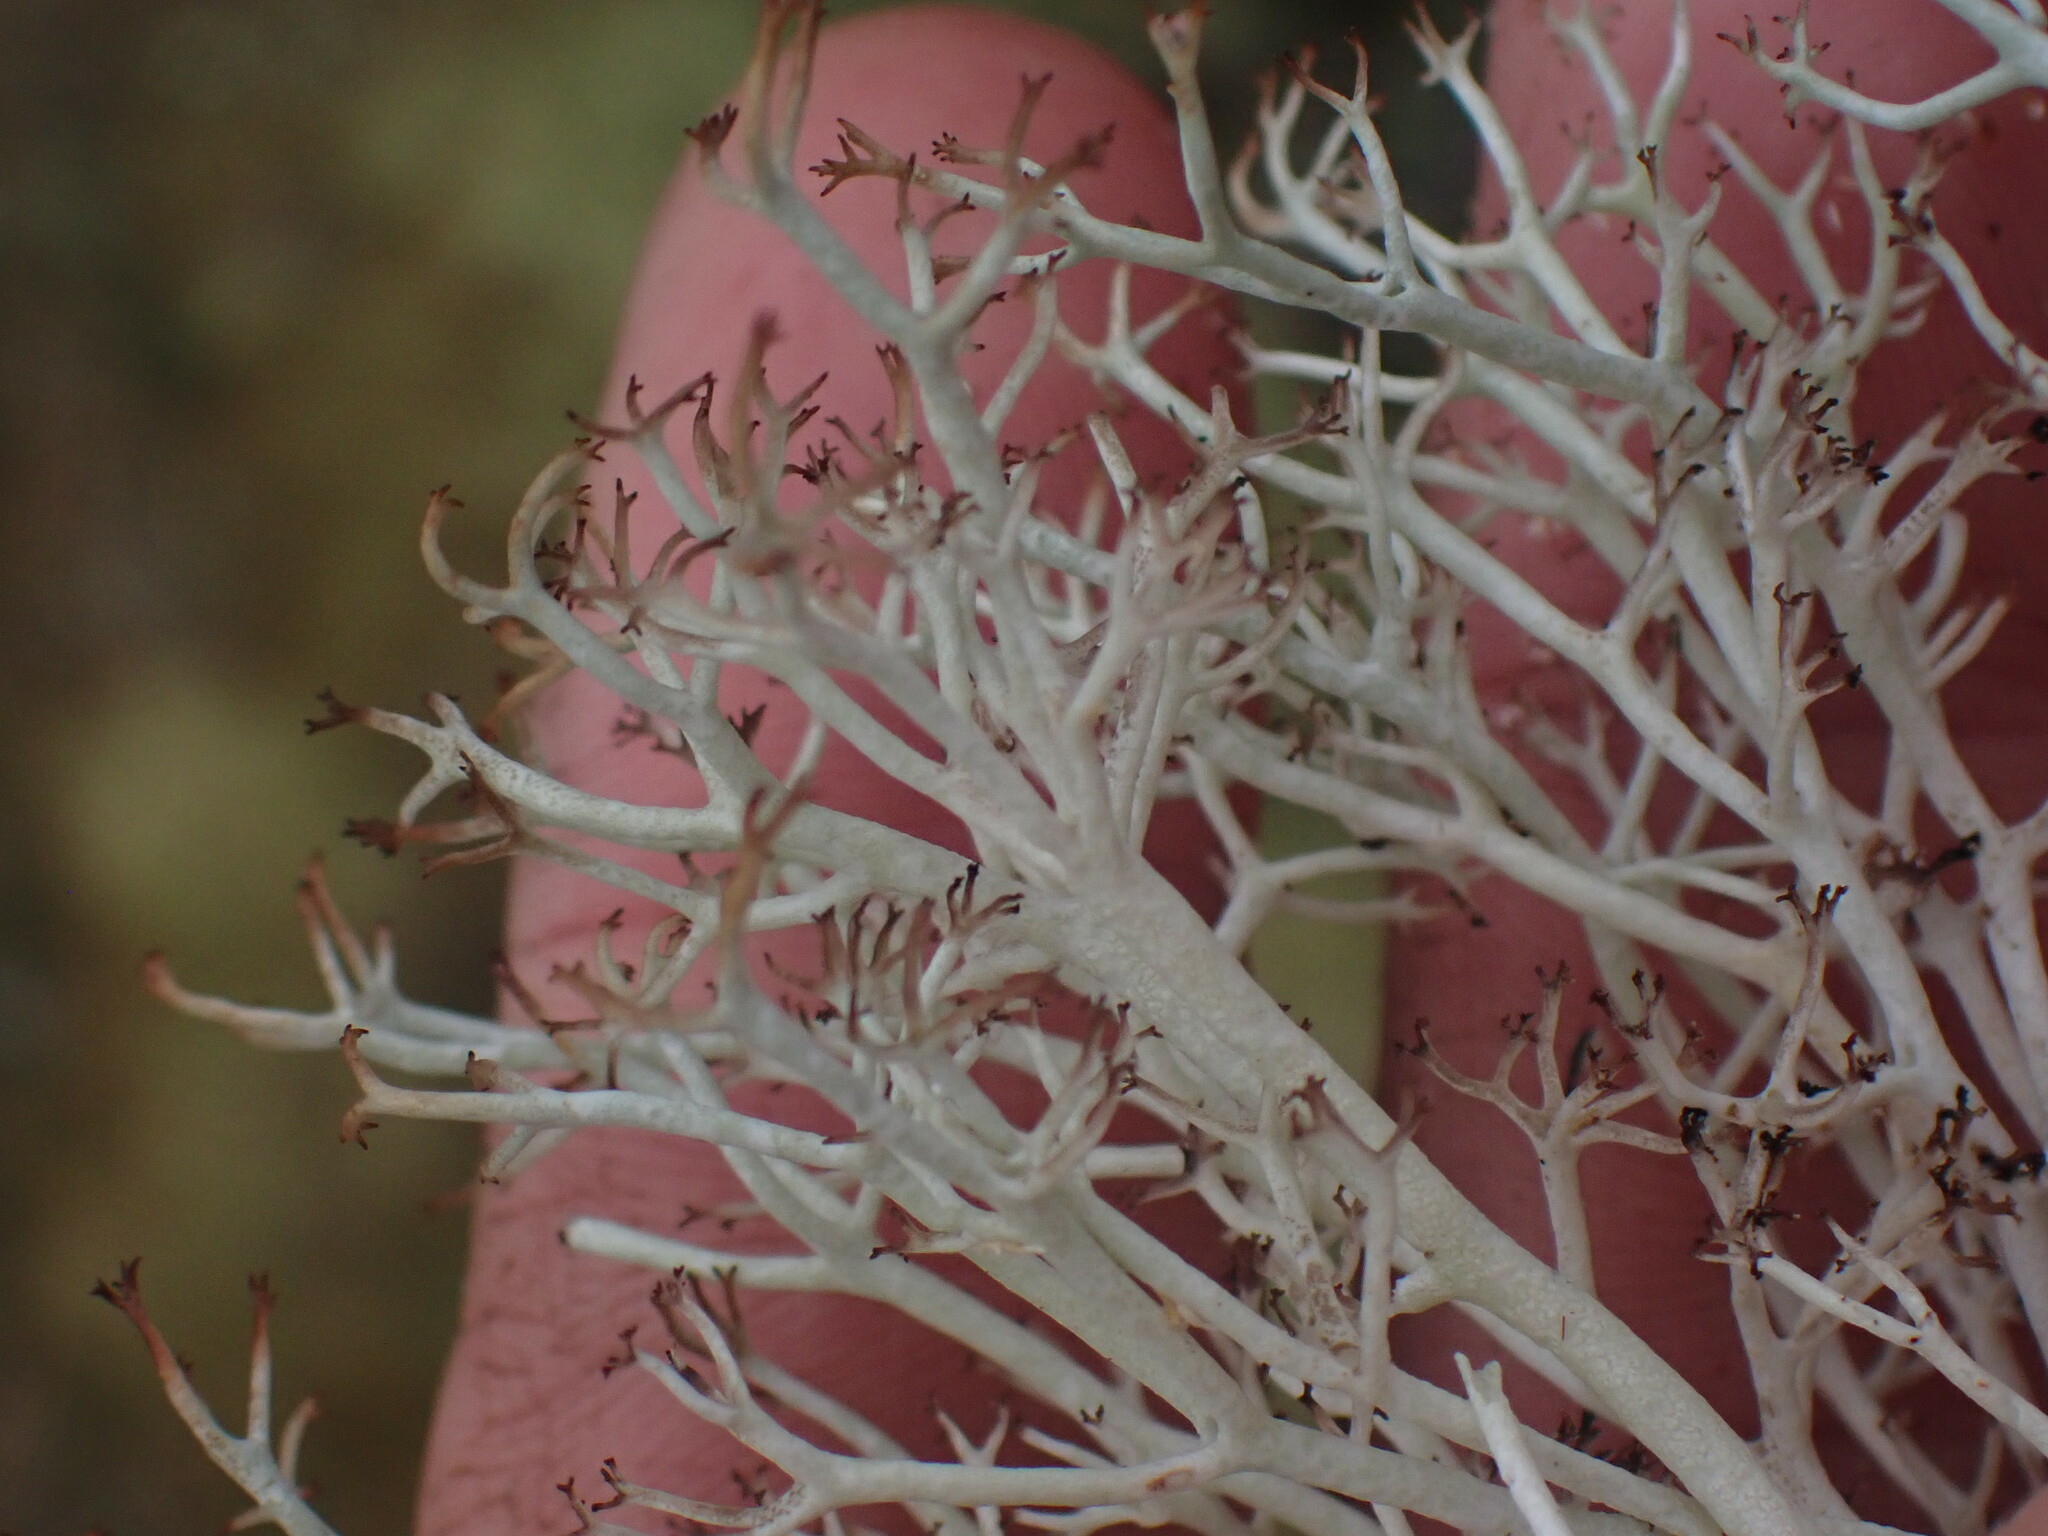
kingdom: Fungi
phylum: Ascomycota
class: Lecanoromycetes
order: Lecanorales
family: Cladoniaceae
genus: Cladonia
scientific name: Cladonia rangiferina
